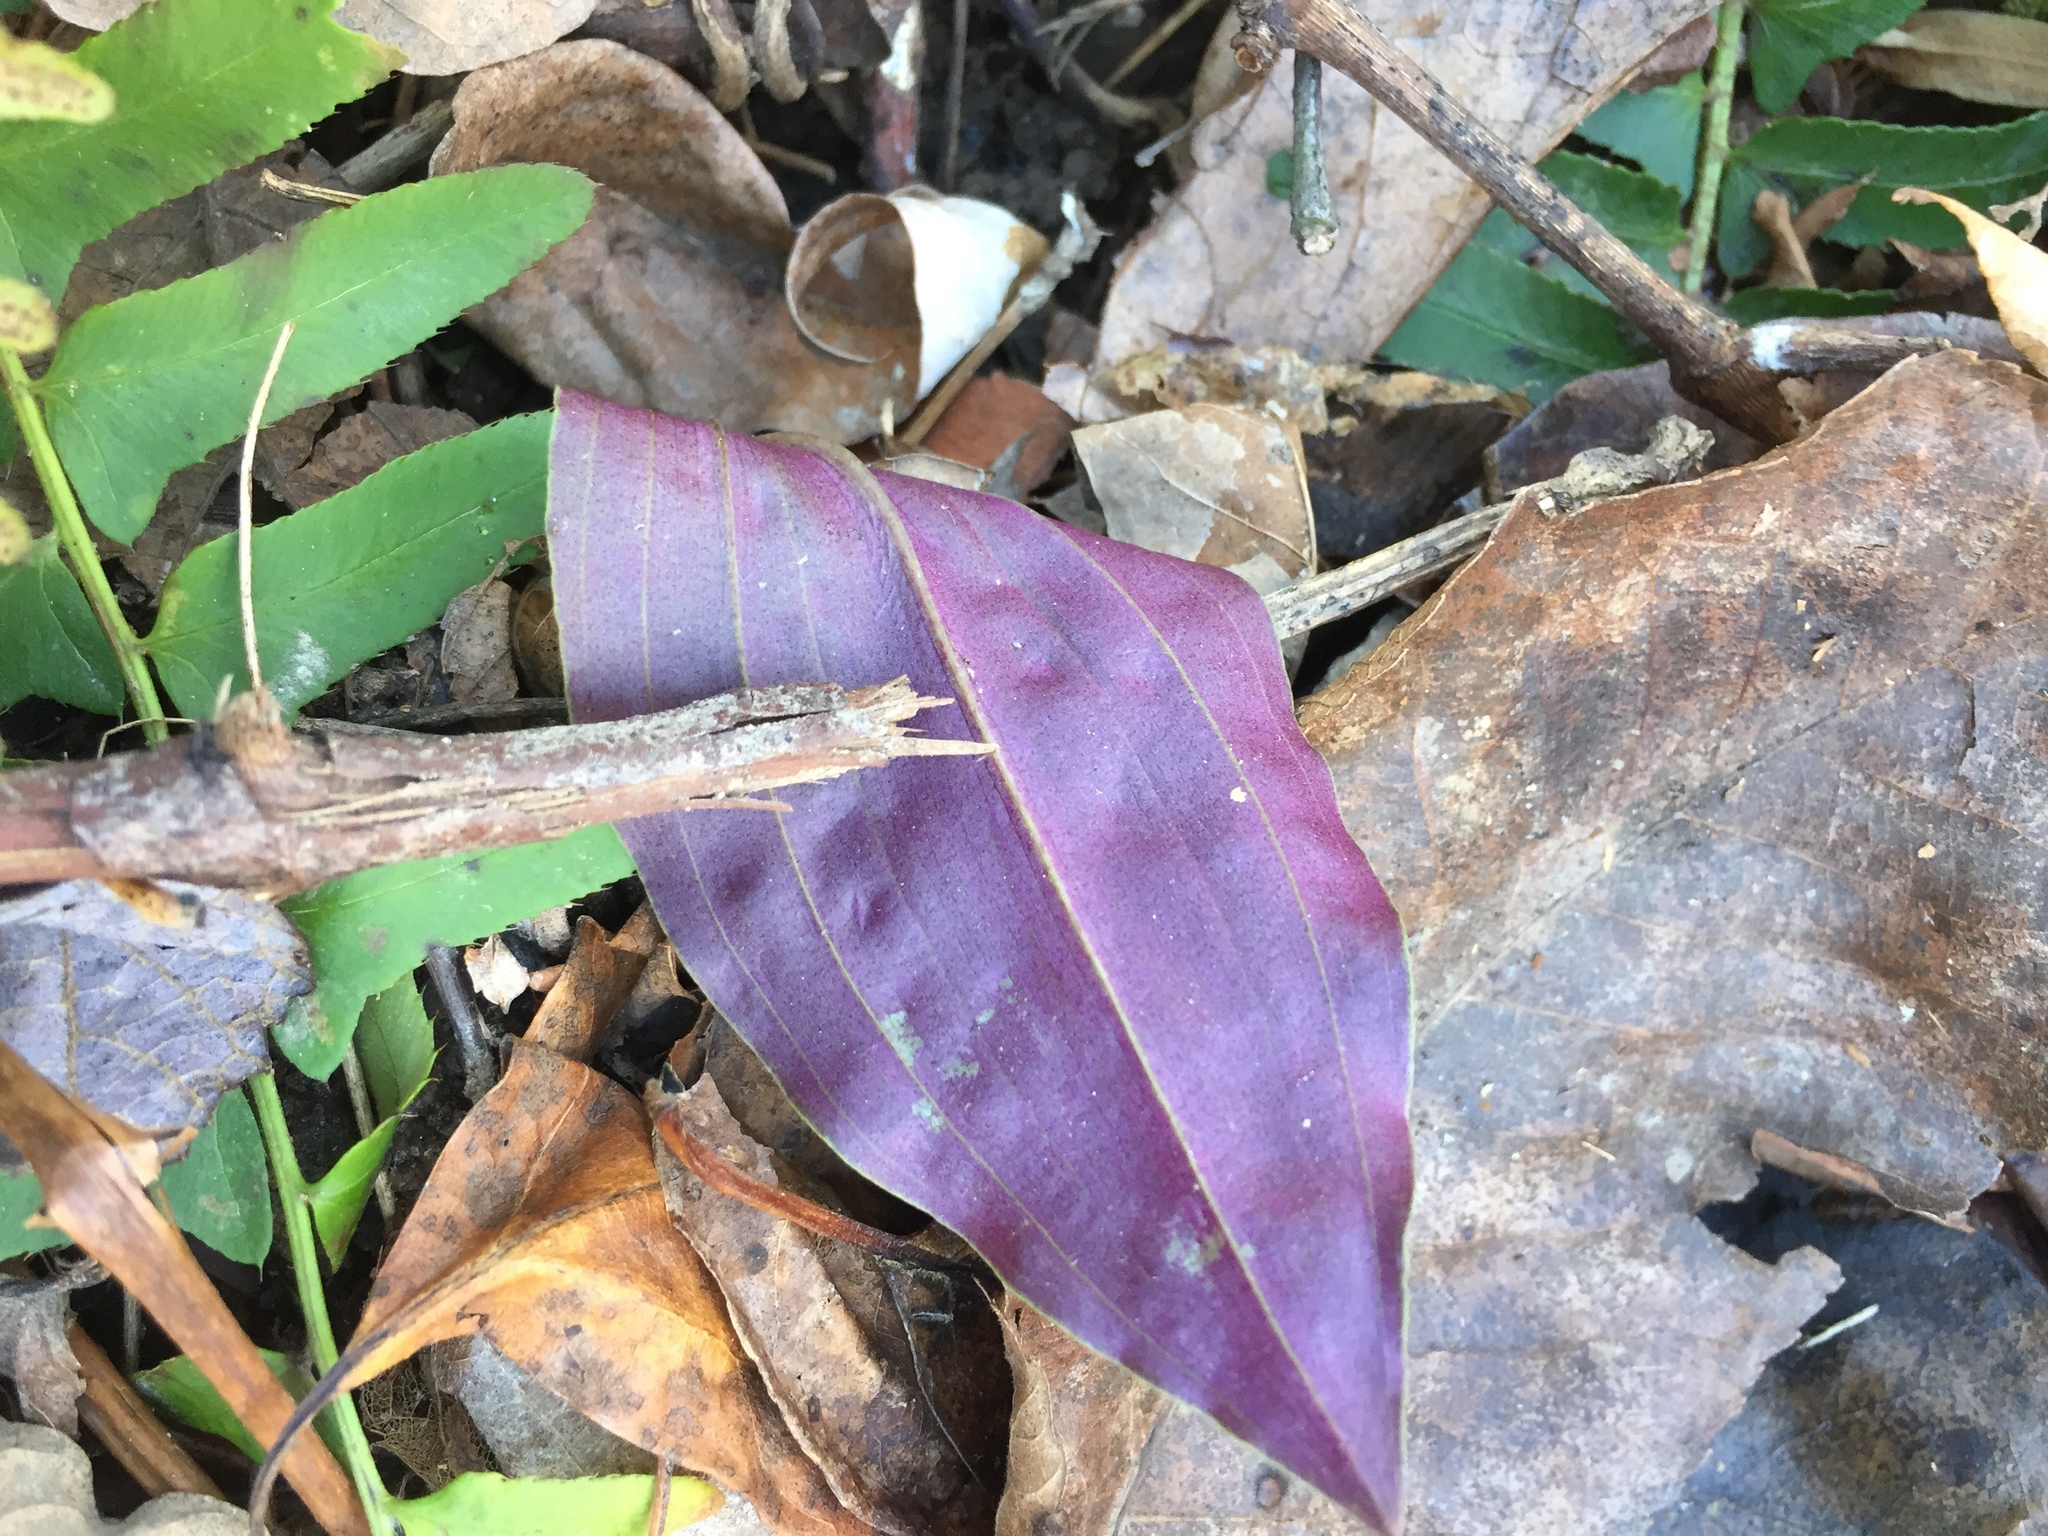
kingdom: Plantae
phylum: Tracheophyta
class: Liliopsida
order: Asparagales
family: Orchidaceae
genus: Tipularia
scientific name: Tipularia discolor
